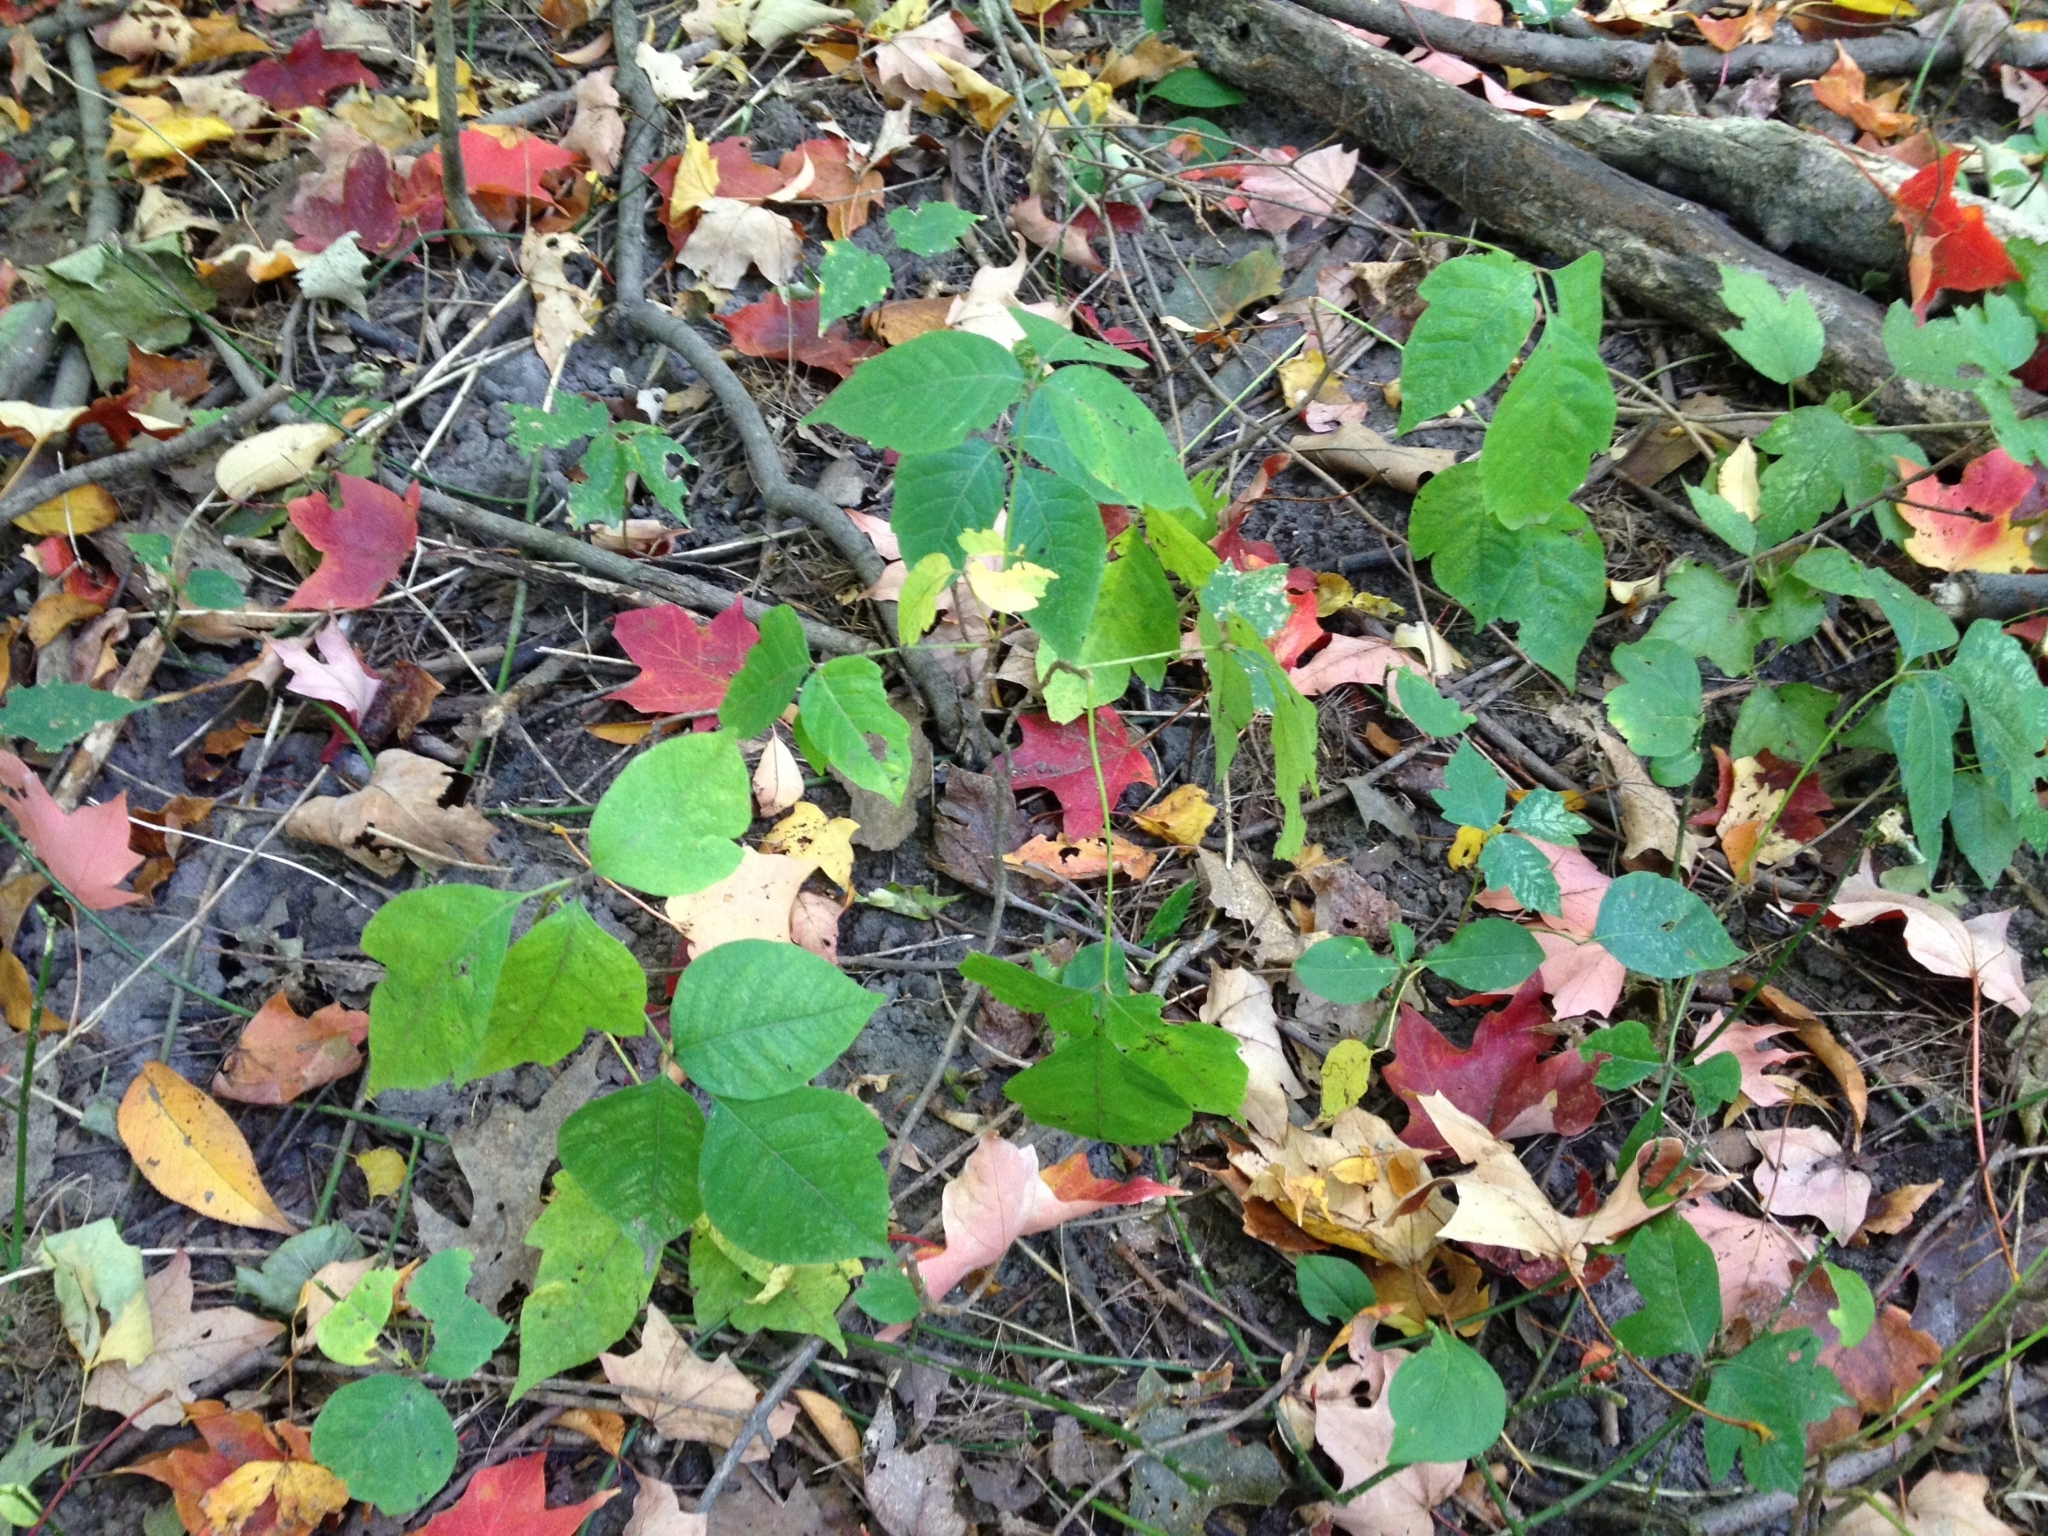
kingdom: Plantae
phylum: Tracheophyta
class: Magnoliopsida
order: Sapindales
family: Anacardiaceae
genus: Toxicodendron
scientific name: Toxicodendron radicans
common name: Poison ivy
